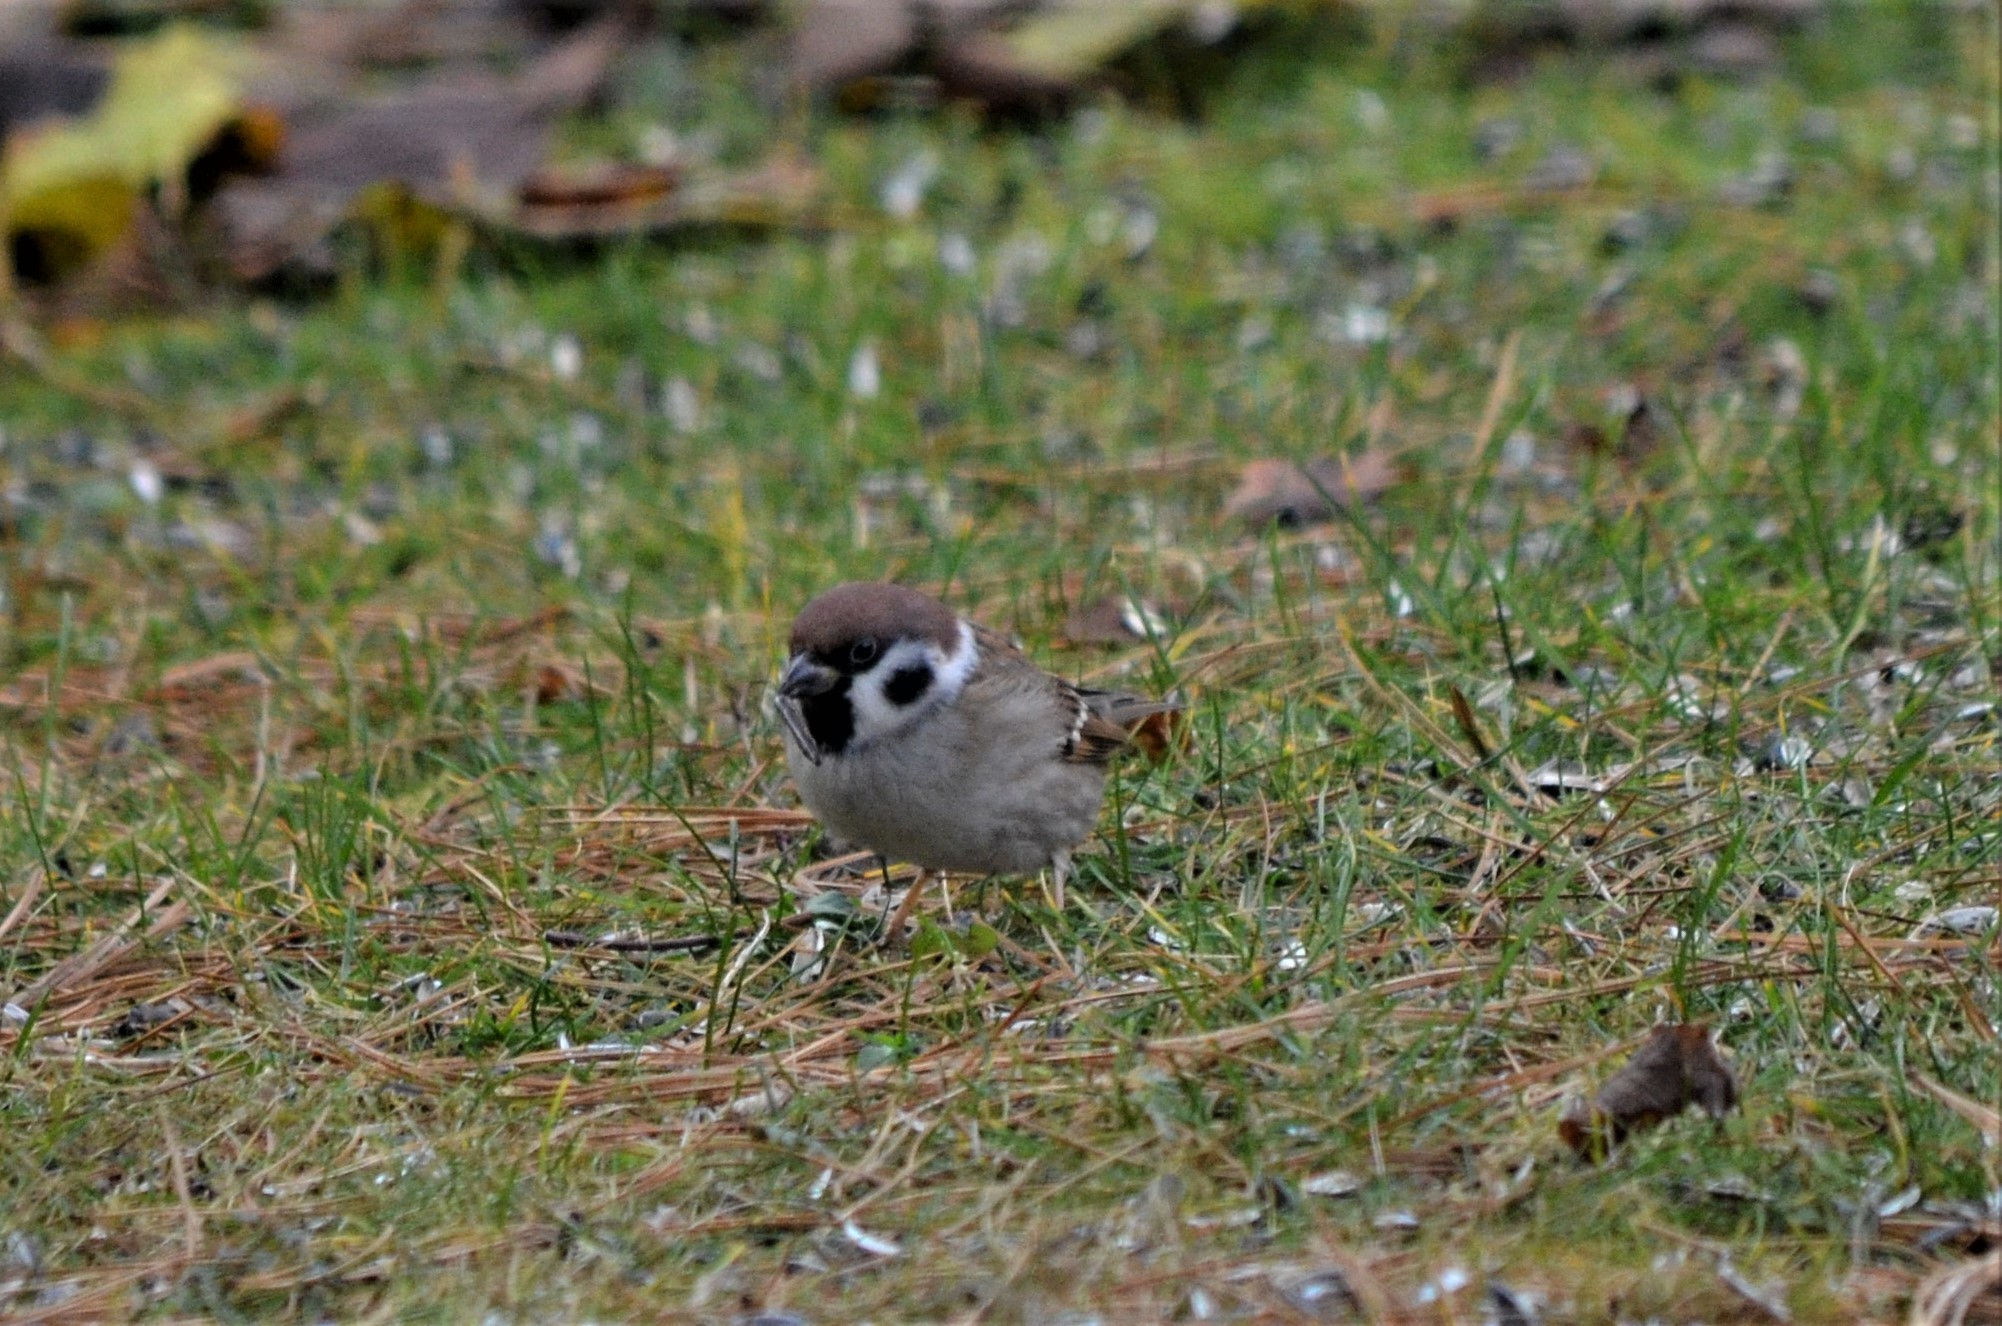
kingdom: Animalia
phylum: Chordata
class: Aves
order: Passeriformes
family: Passeridae
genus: Passer
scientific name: Passer montanus
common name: Eurasian tree sparrow
